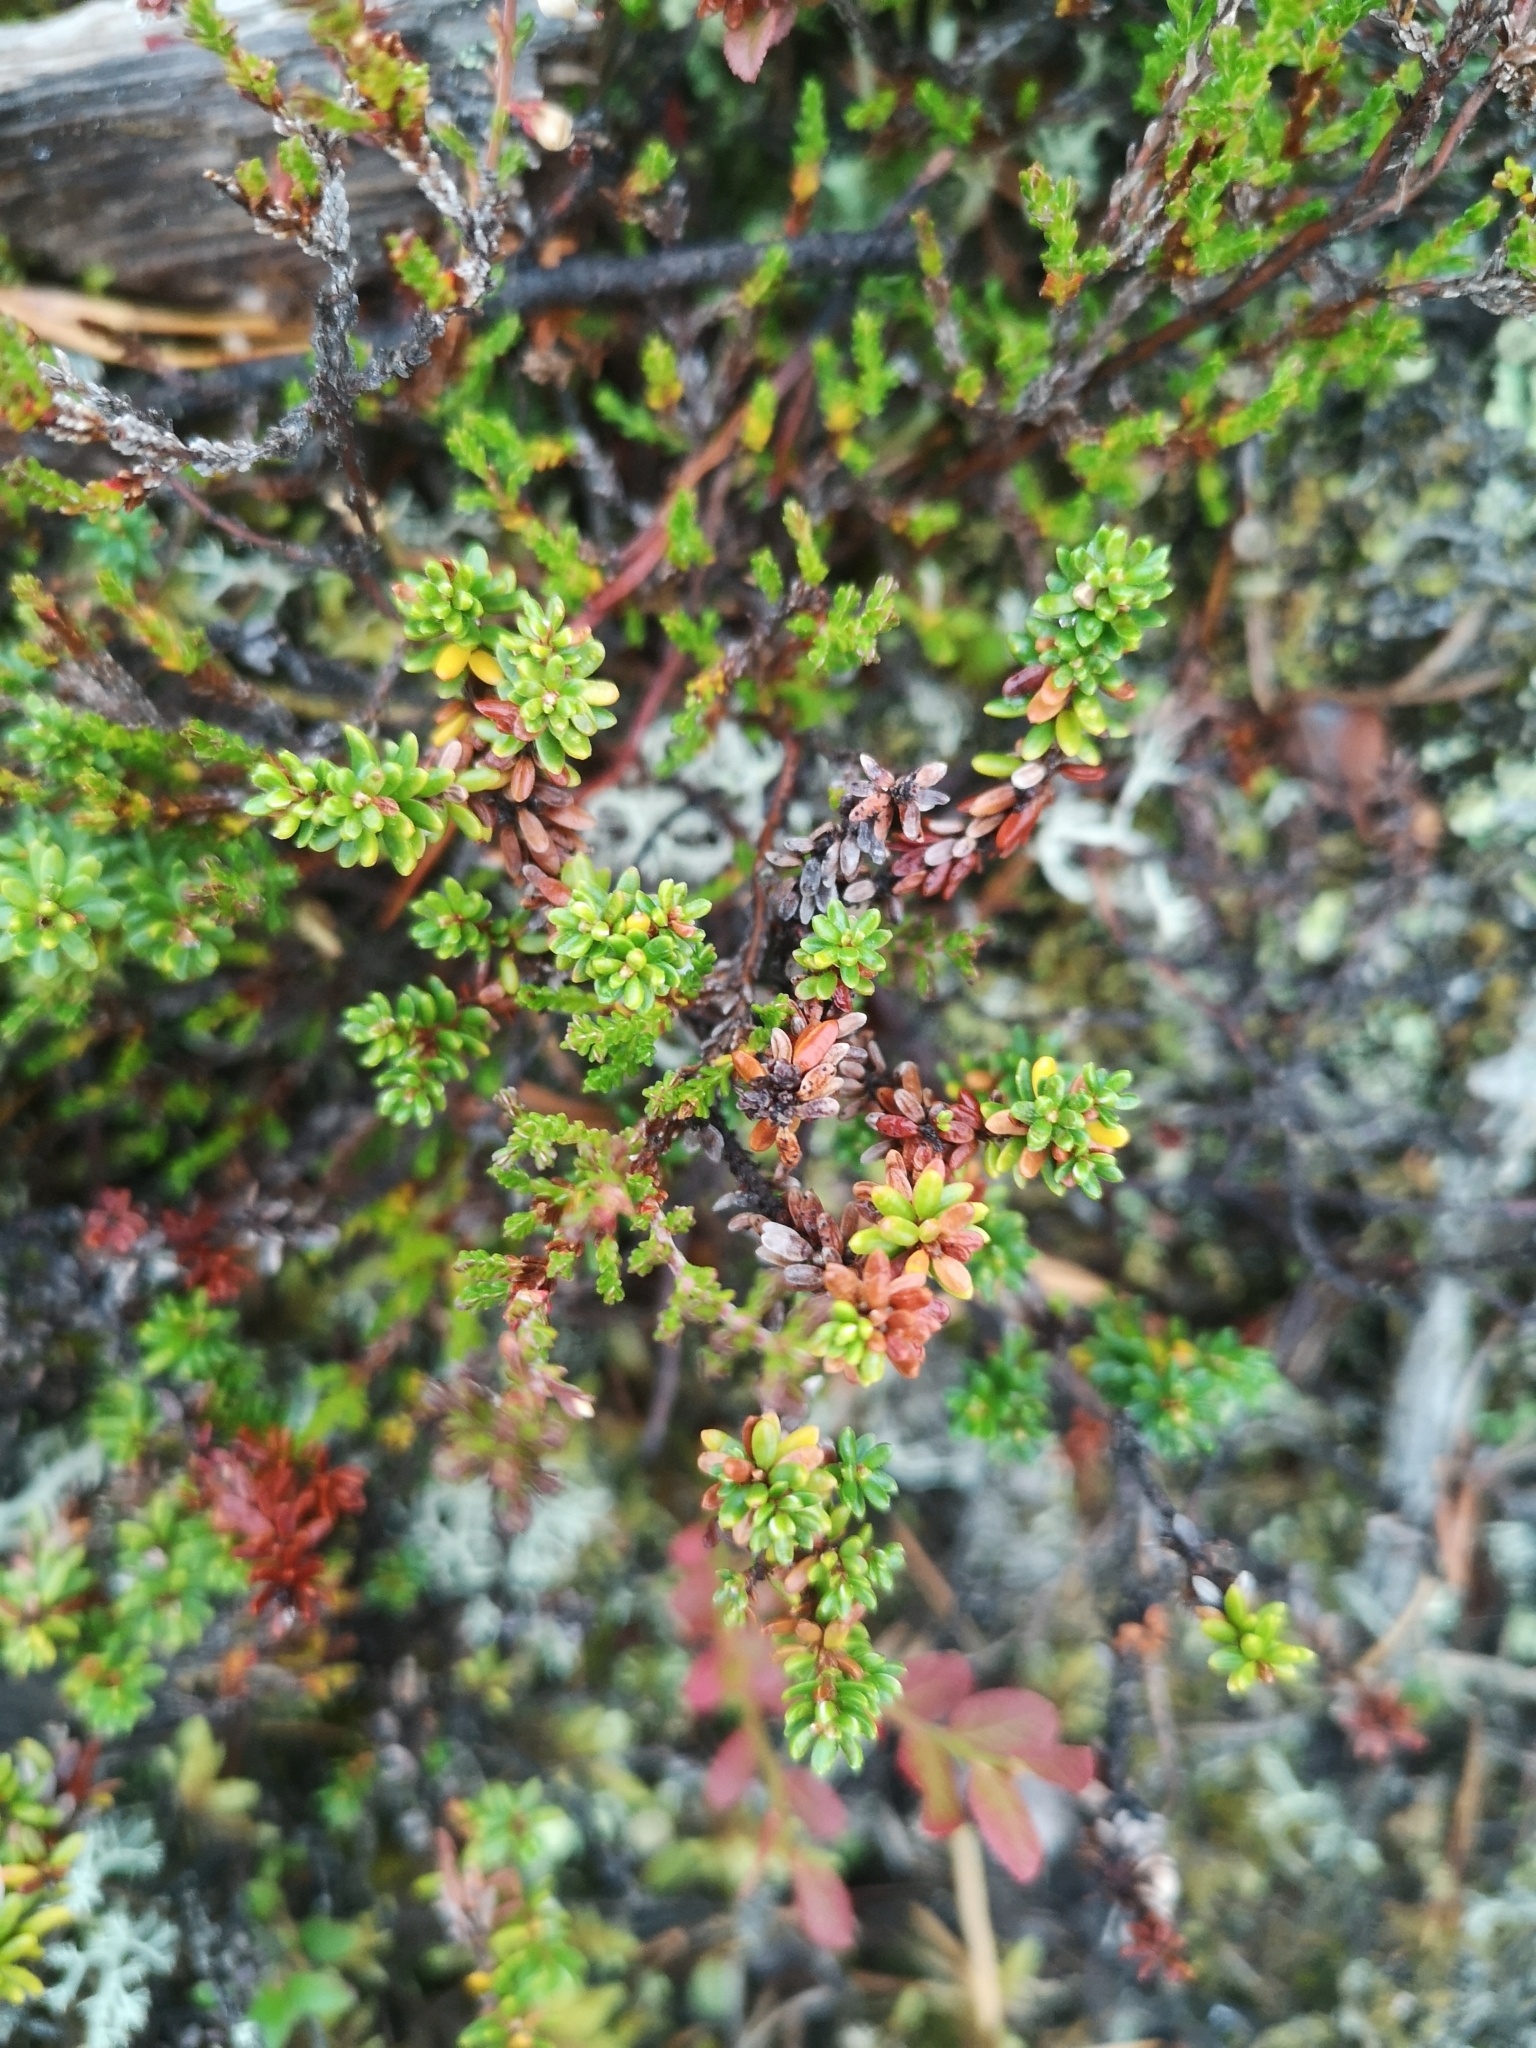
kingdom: Plantae
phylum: Tracheophyta
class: Magnoliopsida
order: Ericales
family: Ericaceae
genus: Empetrum
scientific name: Empetrum nigrum
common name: Black crowberry
